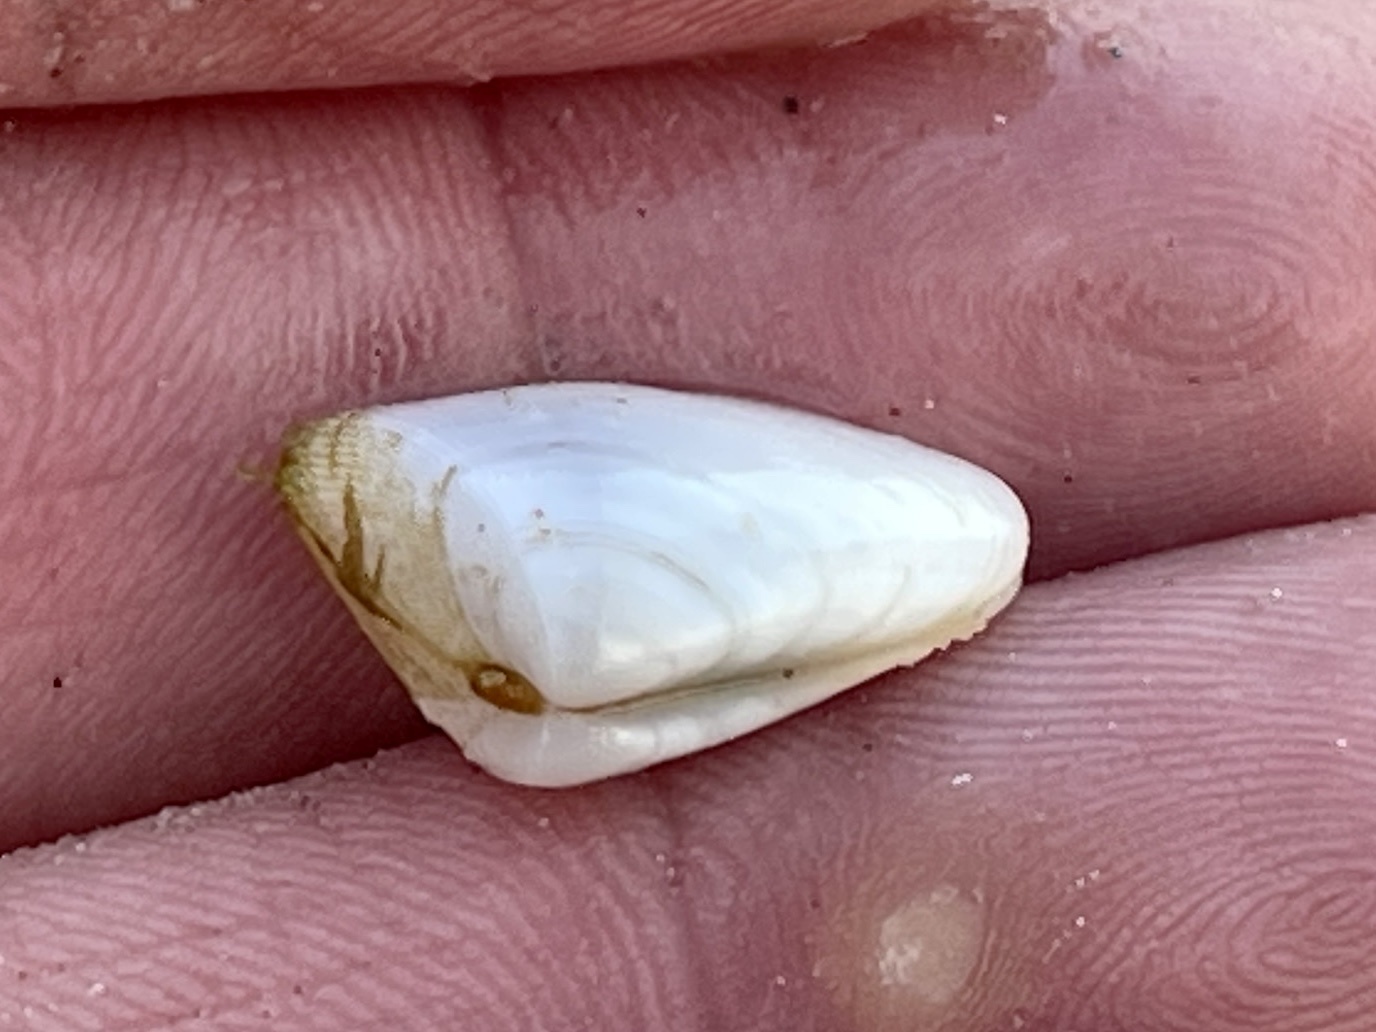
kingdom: Animalia
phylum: Mollusca
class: Bivalvia
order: Cardiida
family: Donacidae
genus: Donax
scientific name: Donax variabilis
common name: Butterfly shell
